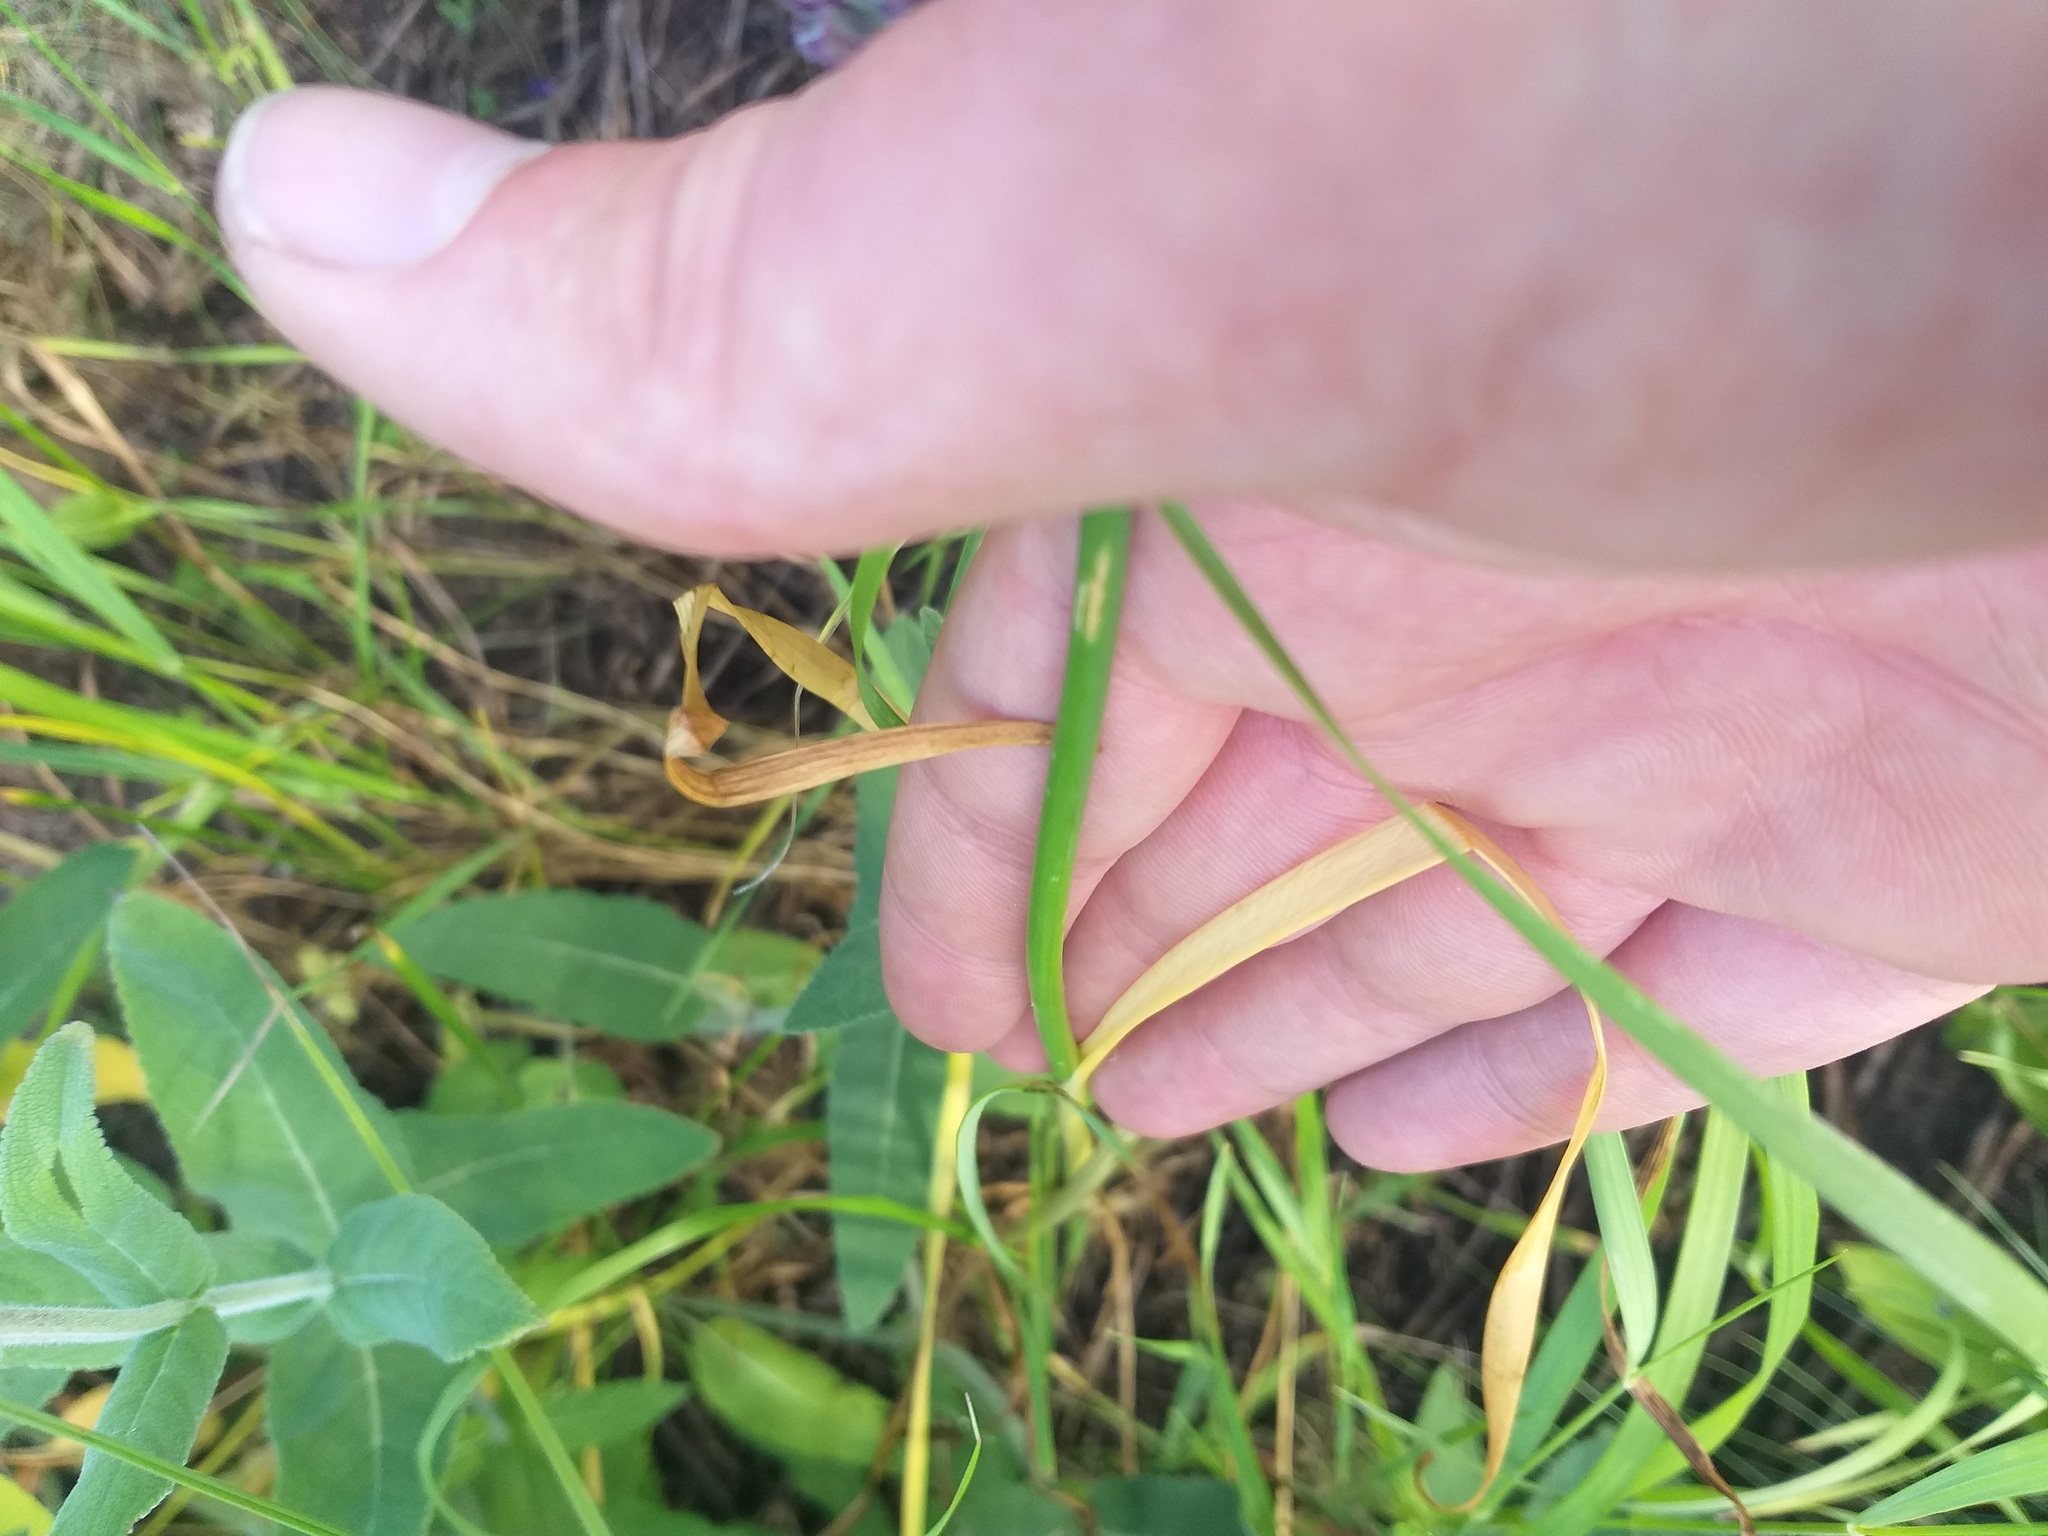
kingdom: Plantae
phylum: Tracheophyta
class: Liliopsida
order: Asparagales
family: Amaryllidaceae
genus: Allium
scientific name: Allium lineare
